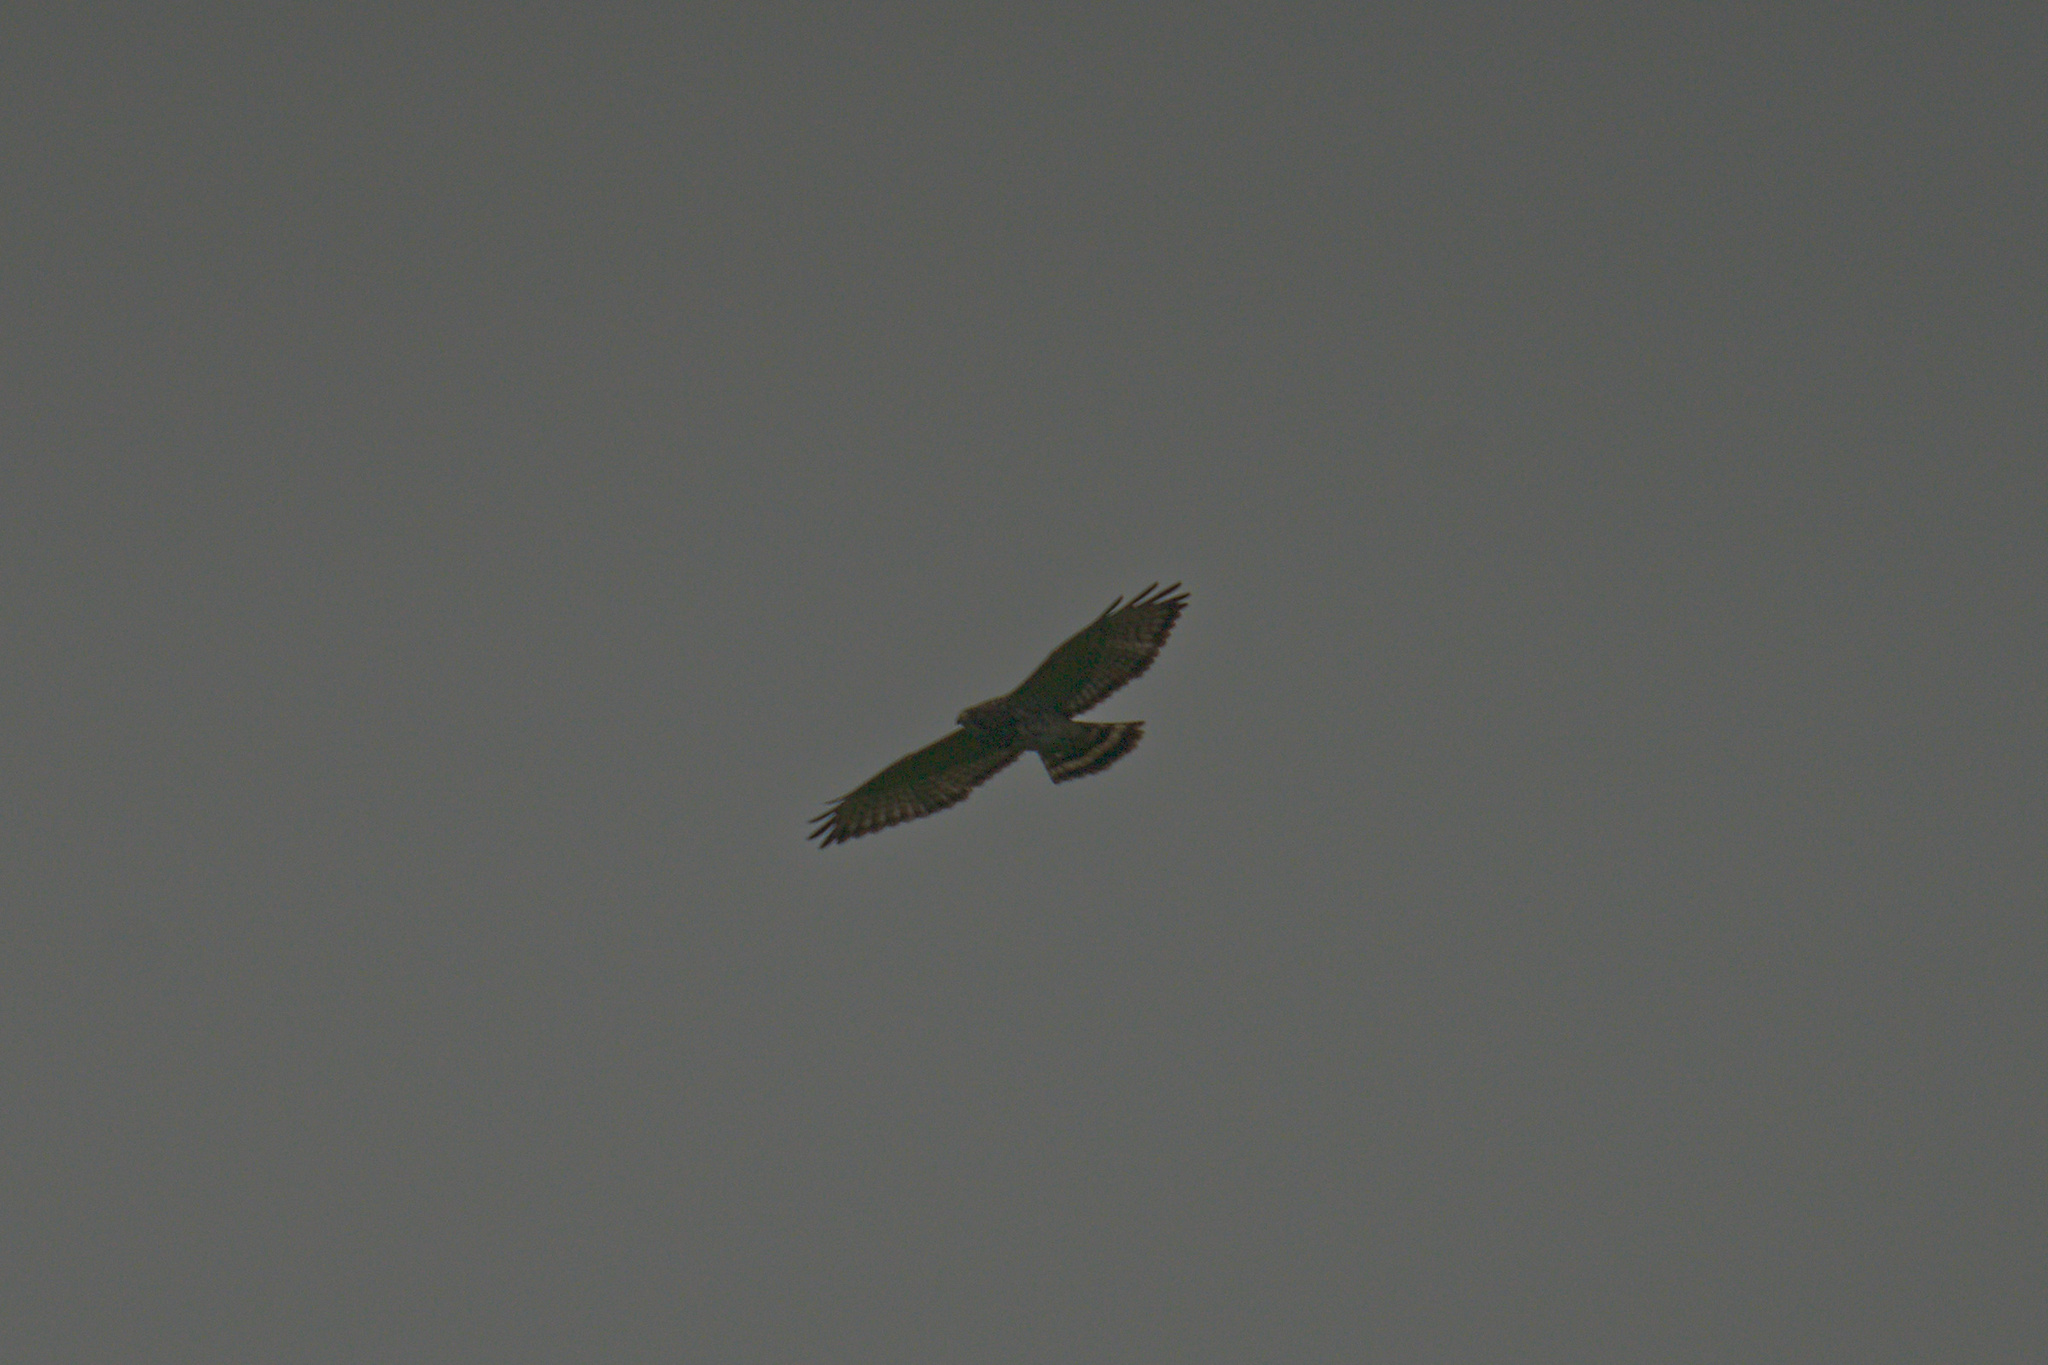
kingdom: Animalia
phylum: Chordata
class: Aves
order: Accipitriformes
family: Accipitridae
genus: Buteo
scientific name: Buteo platypterus
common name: Broad-winged hawk
